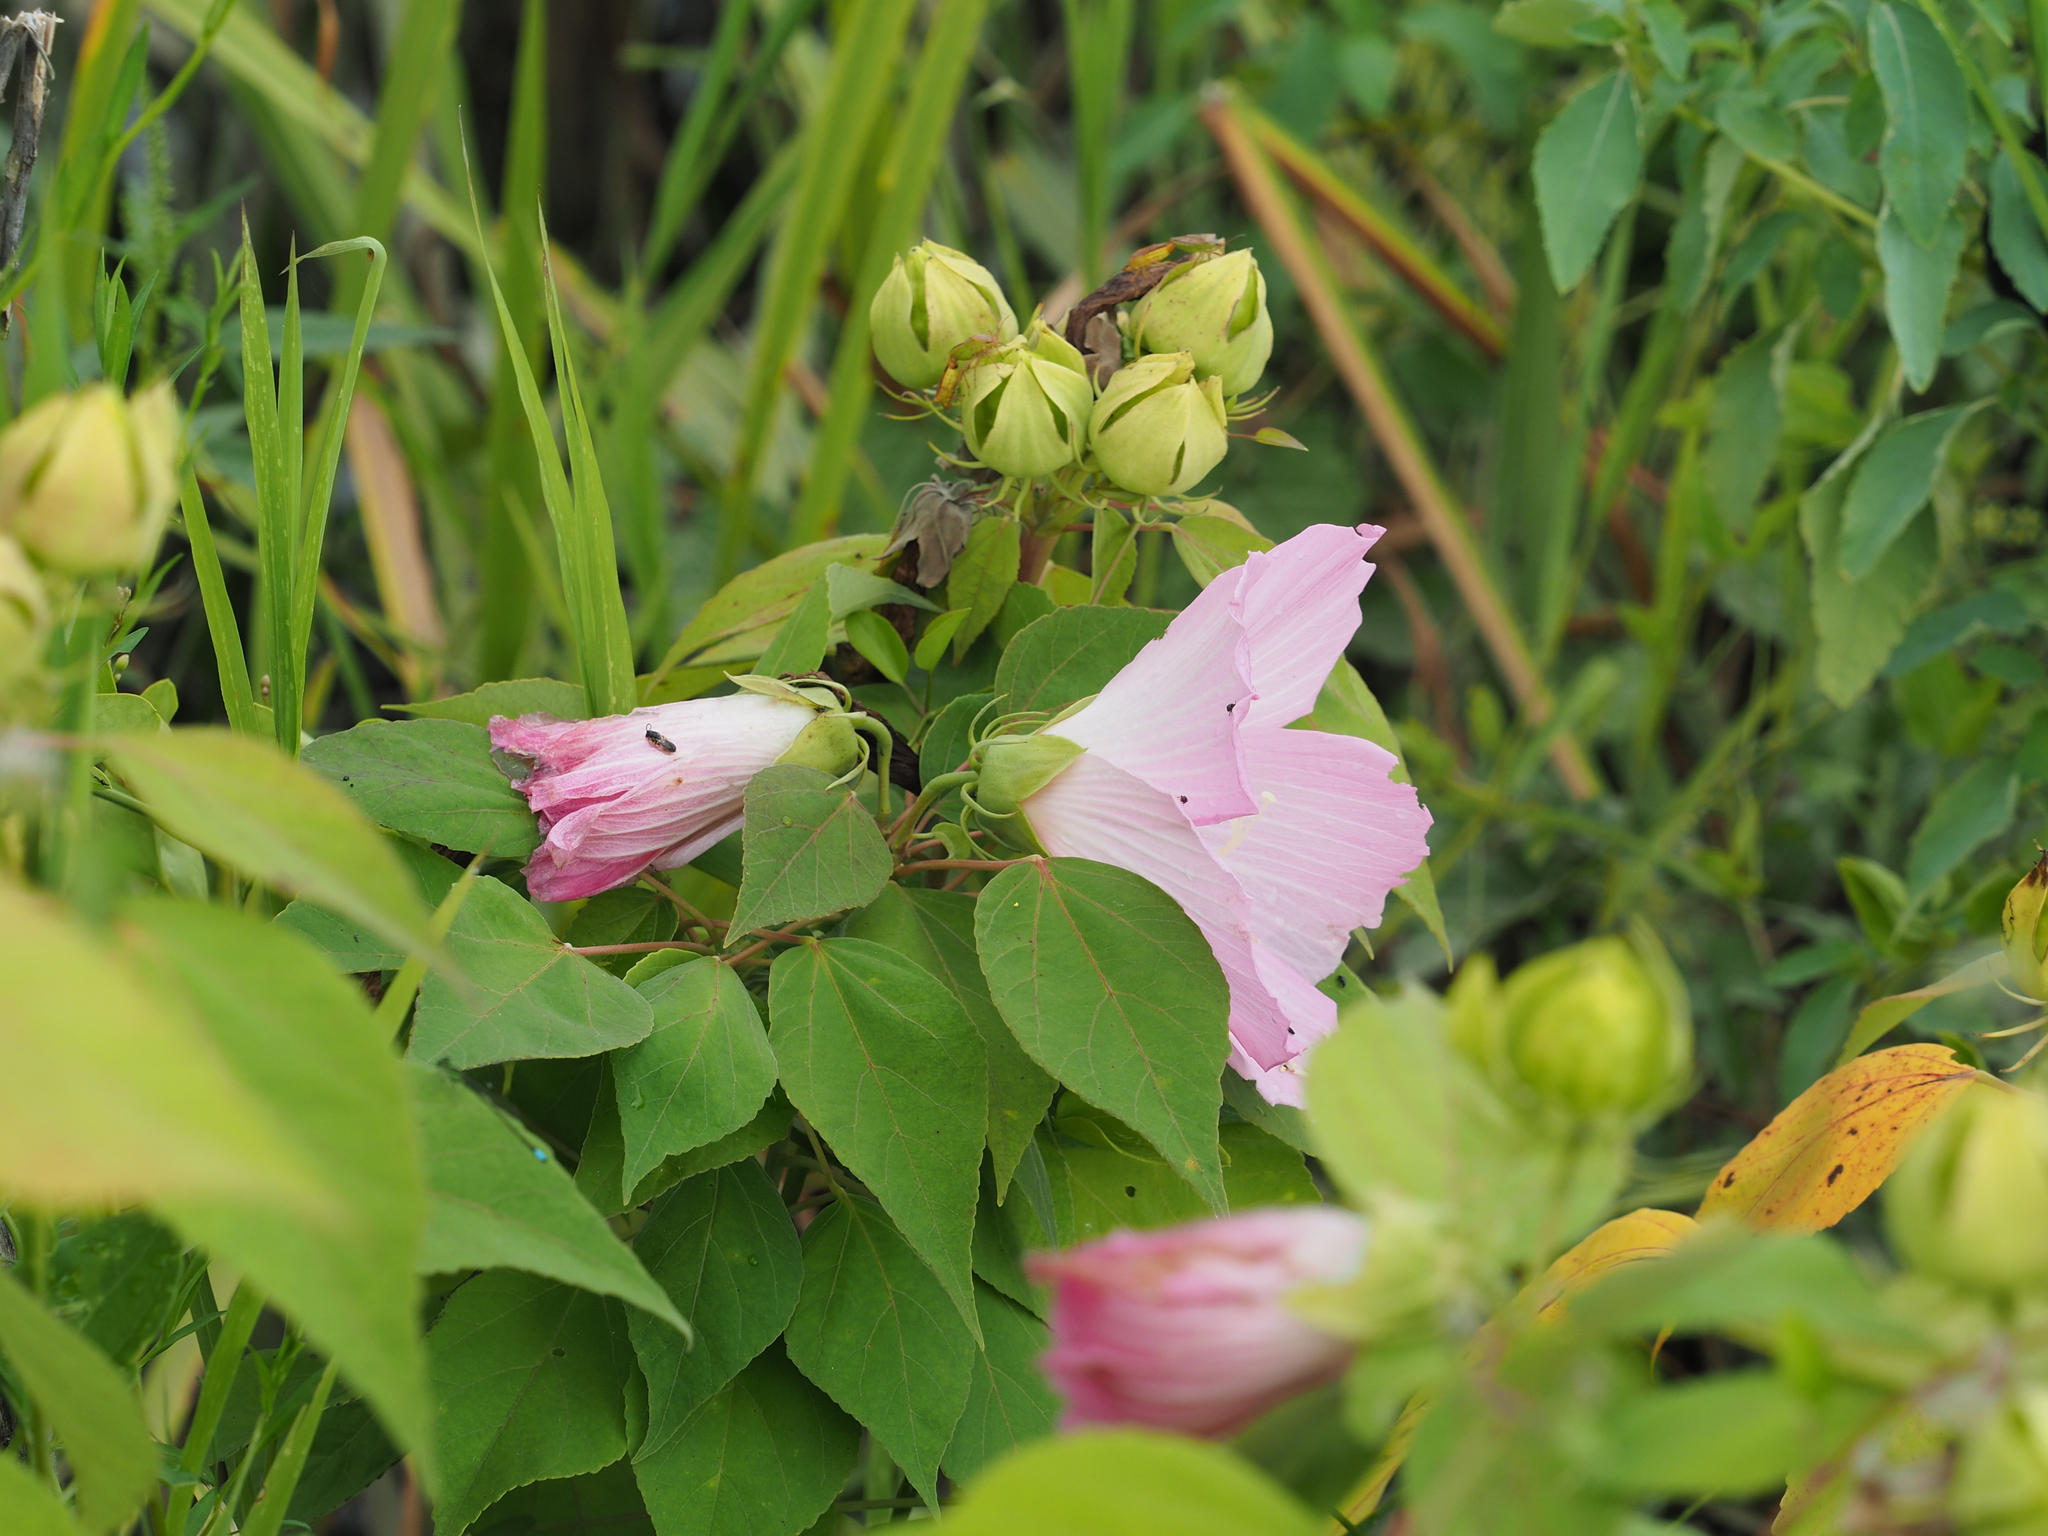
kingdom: Plantae
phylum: Tracheophyta
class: Magnoliopsida
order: Malvales
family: Malvaceae
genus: Hibiscus
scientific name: Hibiscus moscheutos
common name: Common rose-mallow
